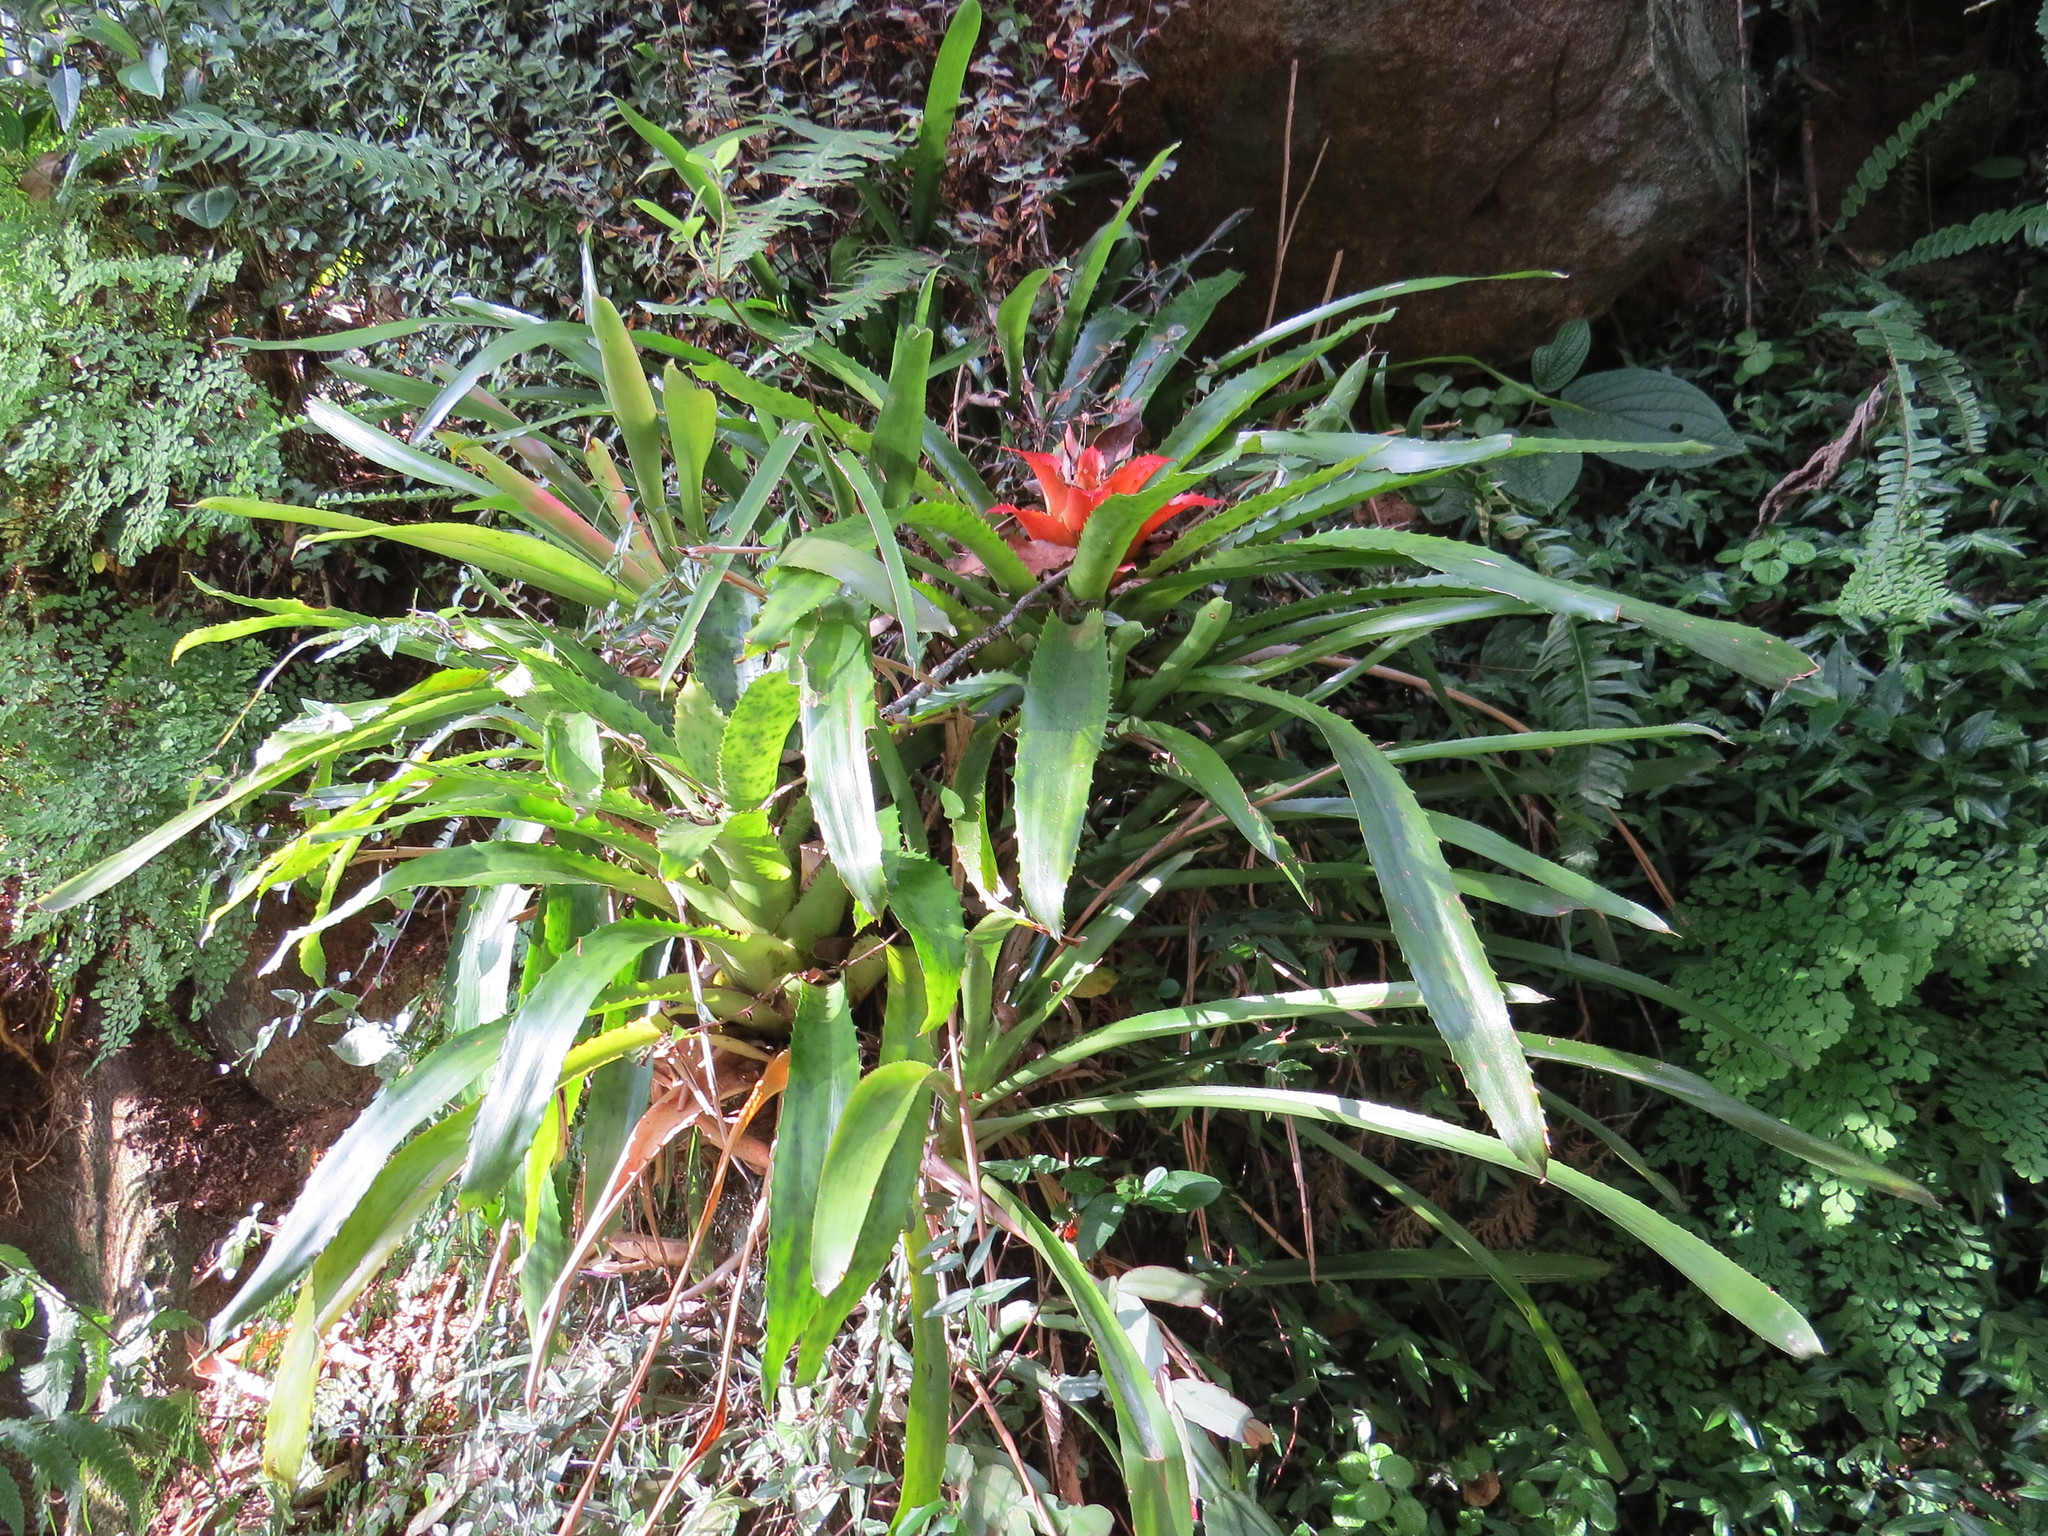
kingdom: Plantae
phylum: Tracheophyta
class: Liliopsida
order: Poales
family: Bromeliaceae
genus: Nidularium
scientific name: Nidularium fulgens
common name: Blushing bromeliad
